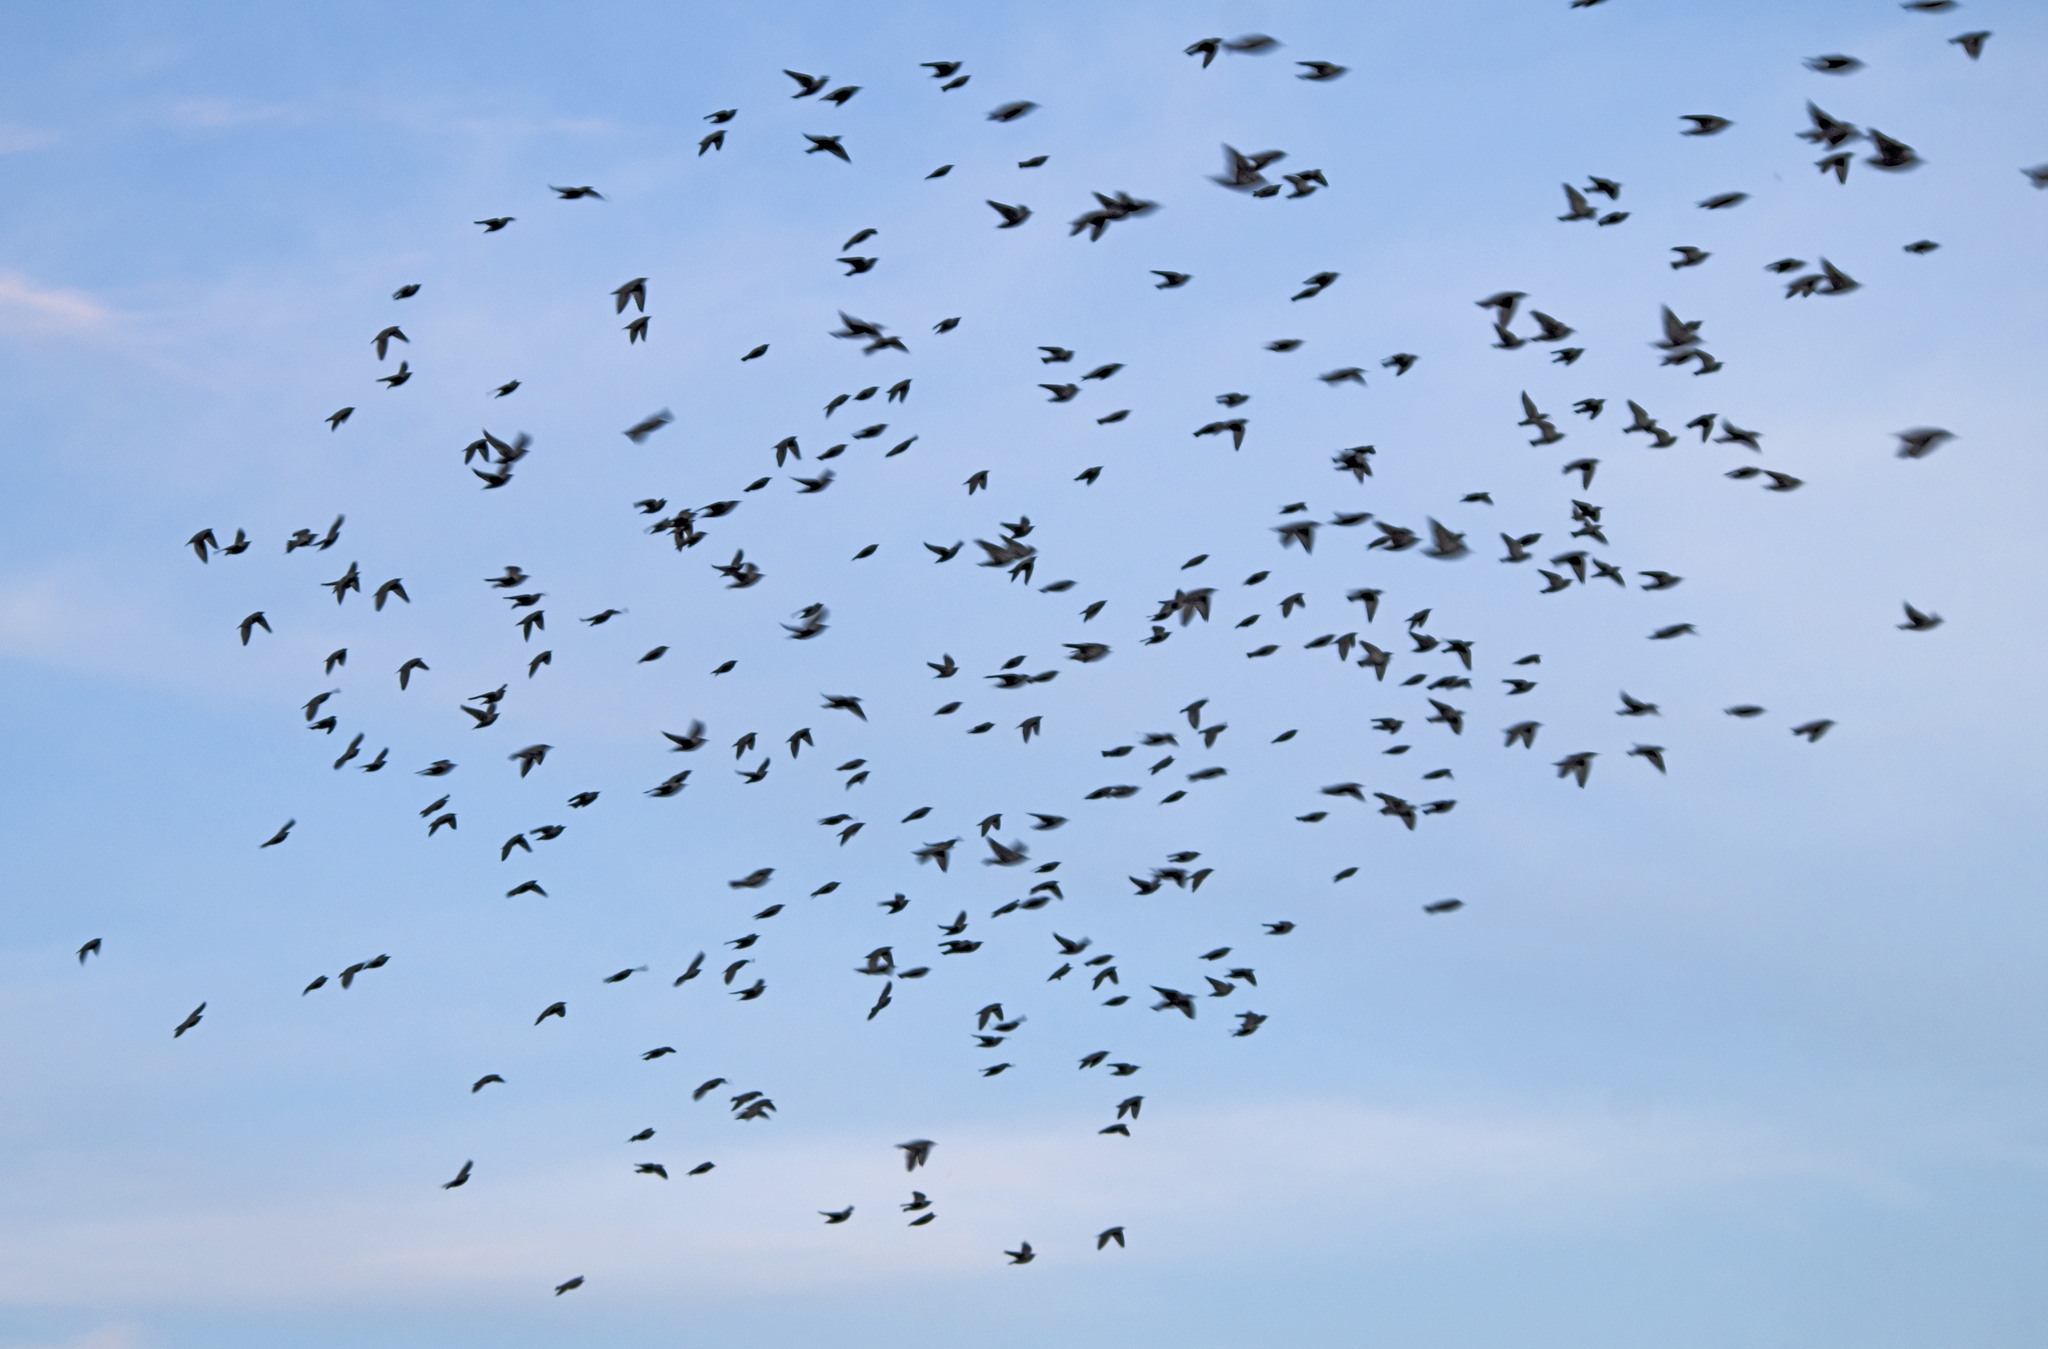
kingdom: Animalia
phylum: Chordata
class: Aves
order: Passeriformes
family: Sturnidae
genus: Sturnus
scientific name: Sturnus vulgaris
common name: Common starling
